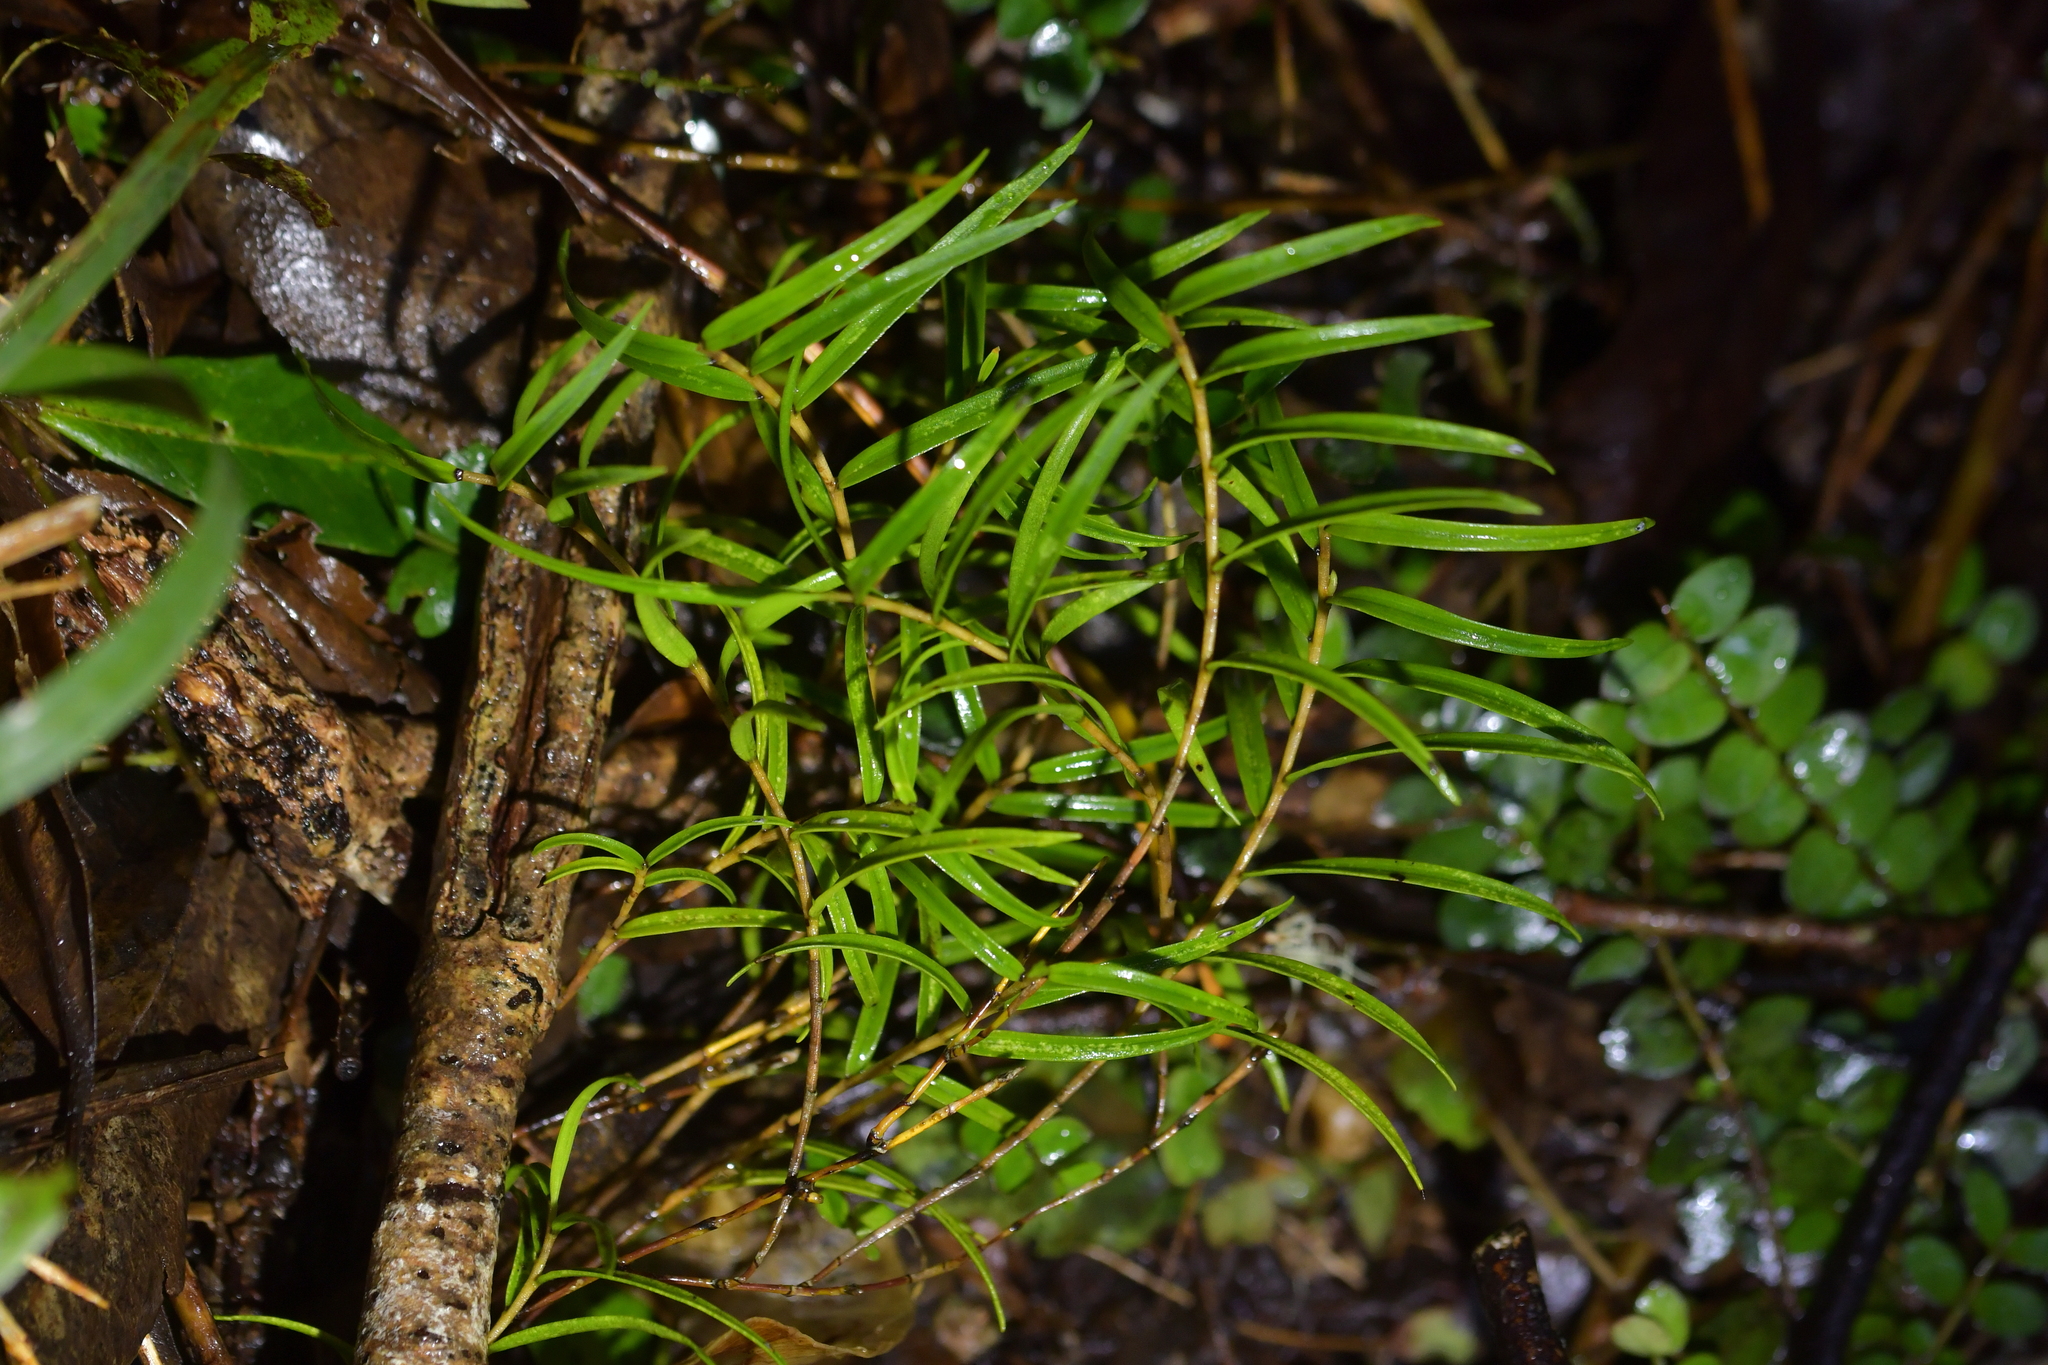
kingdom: Plantae
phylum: Tracheophyta
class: Liliopsida
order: Asparagales
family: Orchidaceae
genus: Dendrobium
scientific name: Dendrobium cunninghamii
